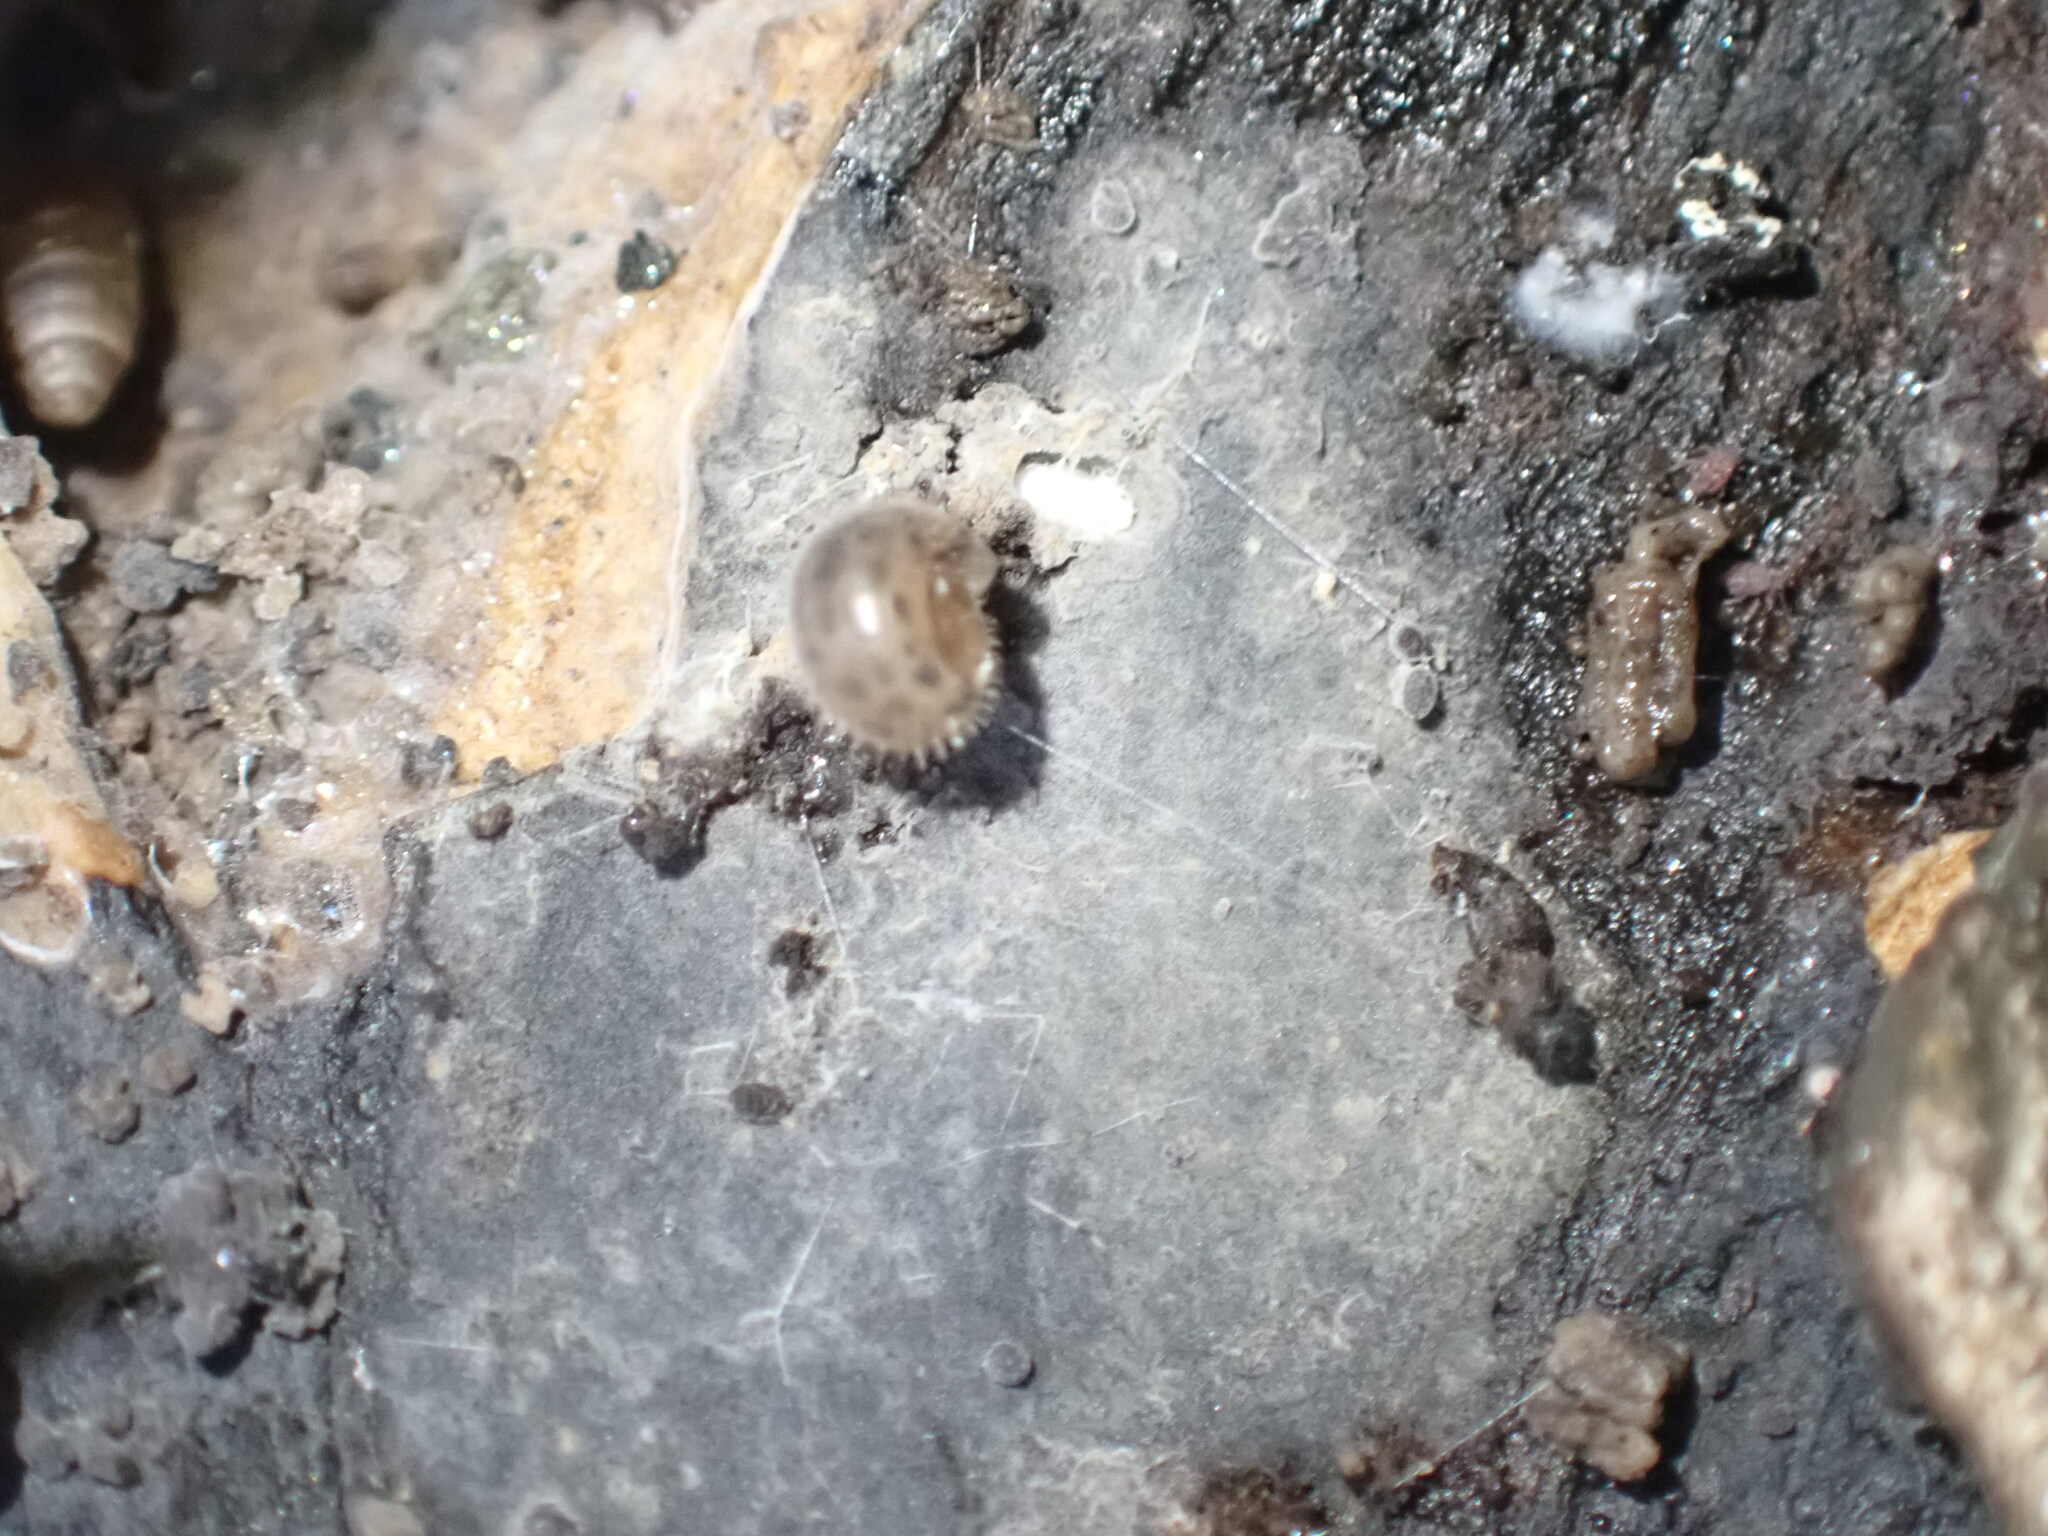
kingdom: Animalia
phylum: Mollusca
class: Gastropoda
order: Stylommatophora
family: Hygromiidae
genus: Trochulus
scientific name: Trochulus hispidus
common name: Hairy snail
